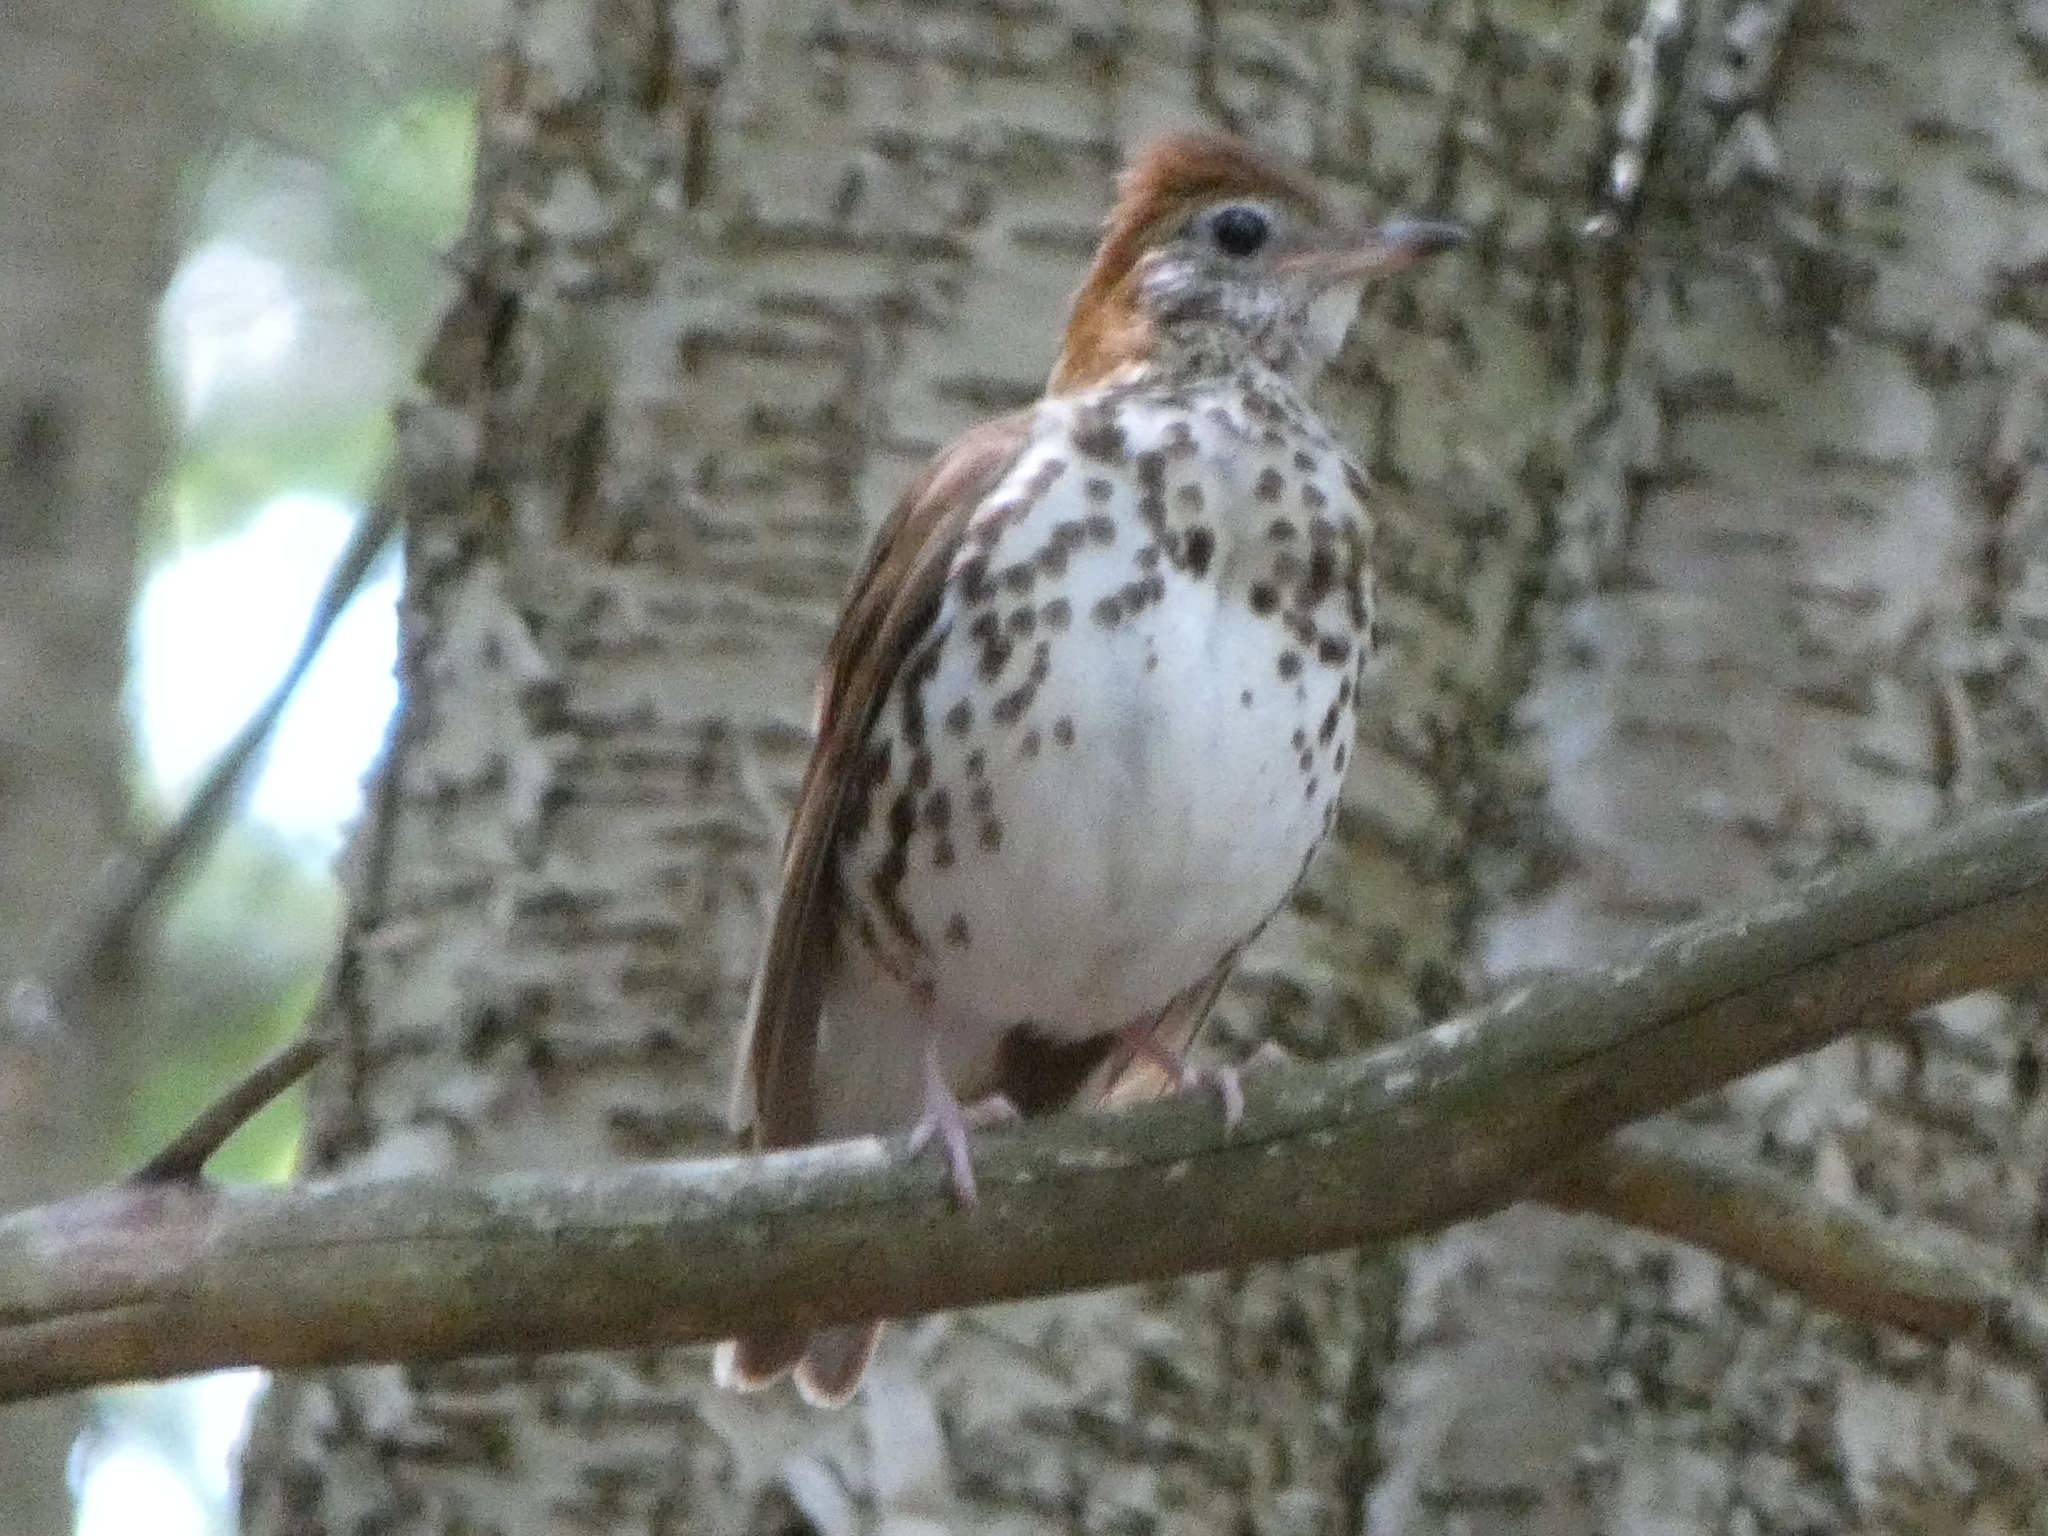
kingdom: Animalia
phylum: Chordata
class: Aves
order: Passeriformes
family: Turdidae
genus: Hylocichla
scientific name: Hylocichla mustelina
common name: Wood thrush
